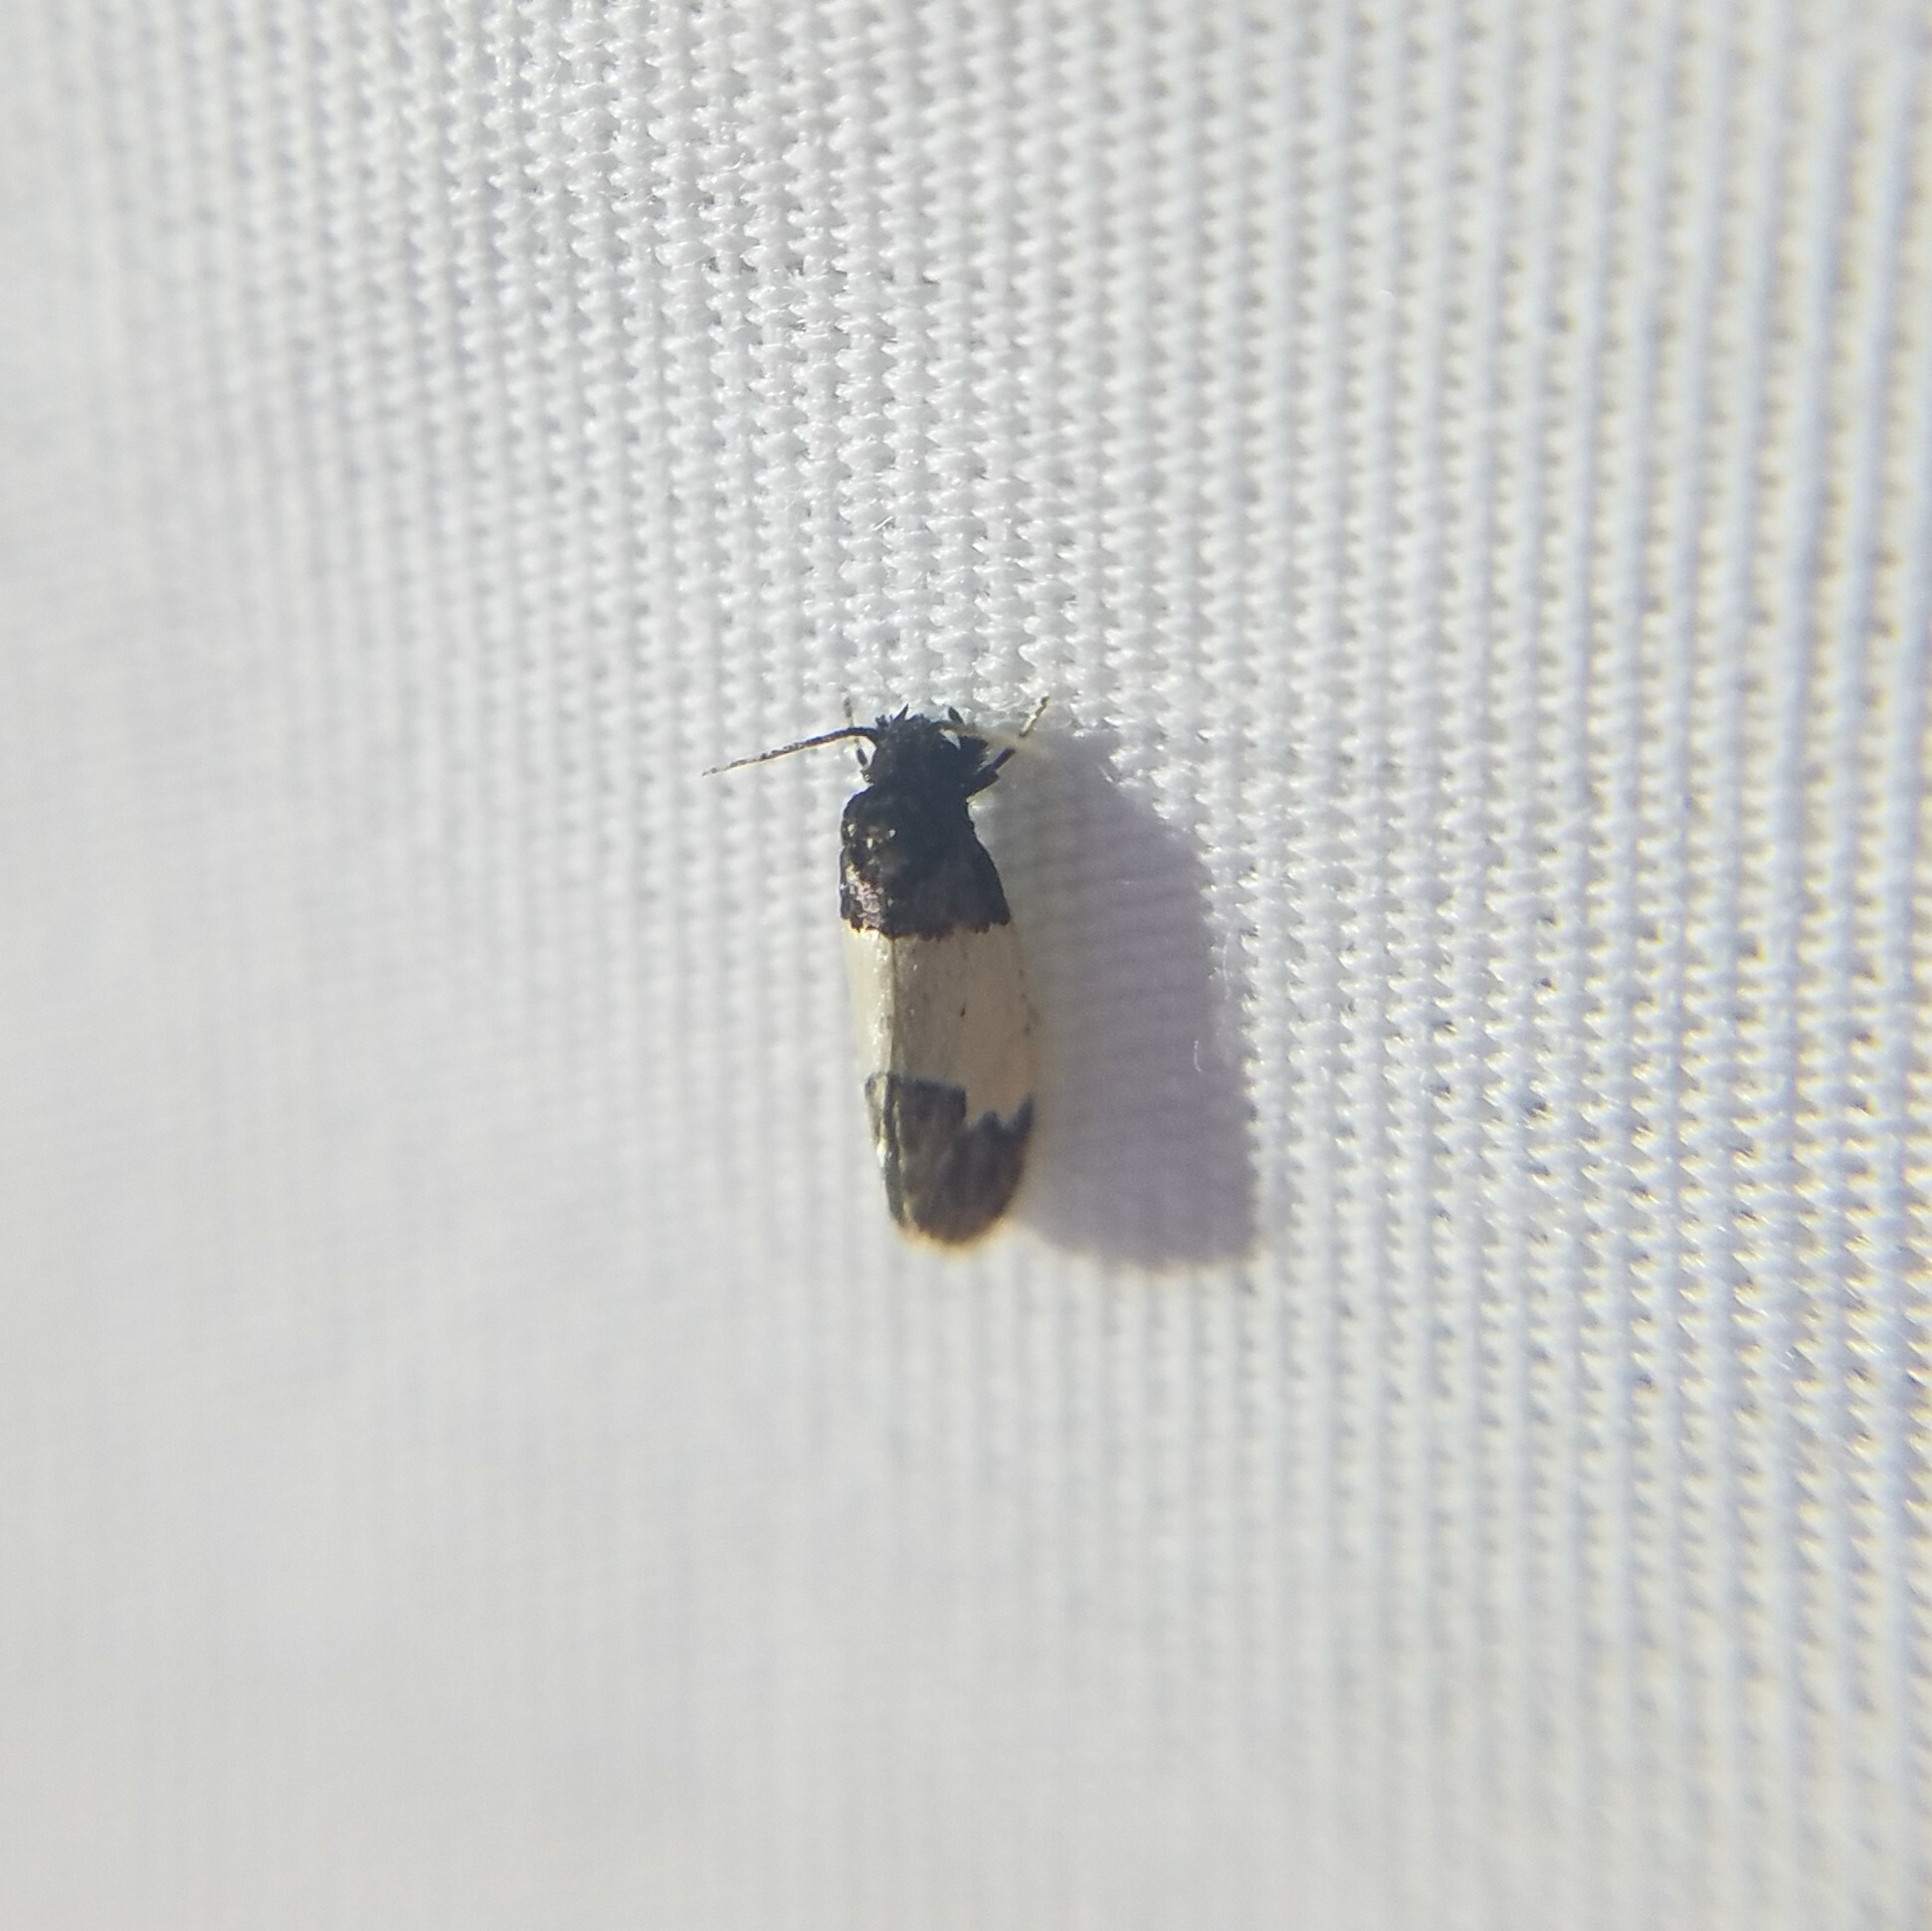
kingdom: Animalia
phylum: Arthropoda
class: Insecta
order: Lepidoptera
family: Psychidae
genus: Kearfottia
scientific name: Kearfottia albifasciella
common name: White-patched kearfottia
